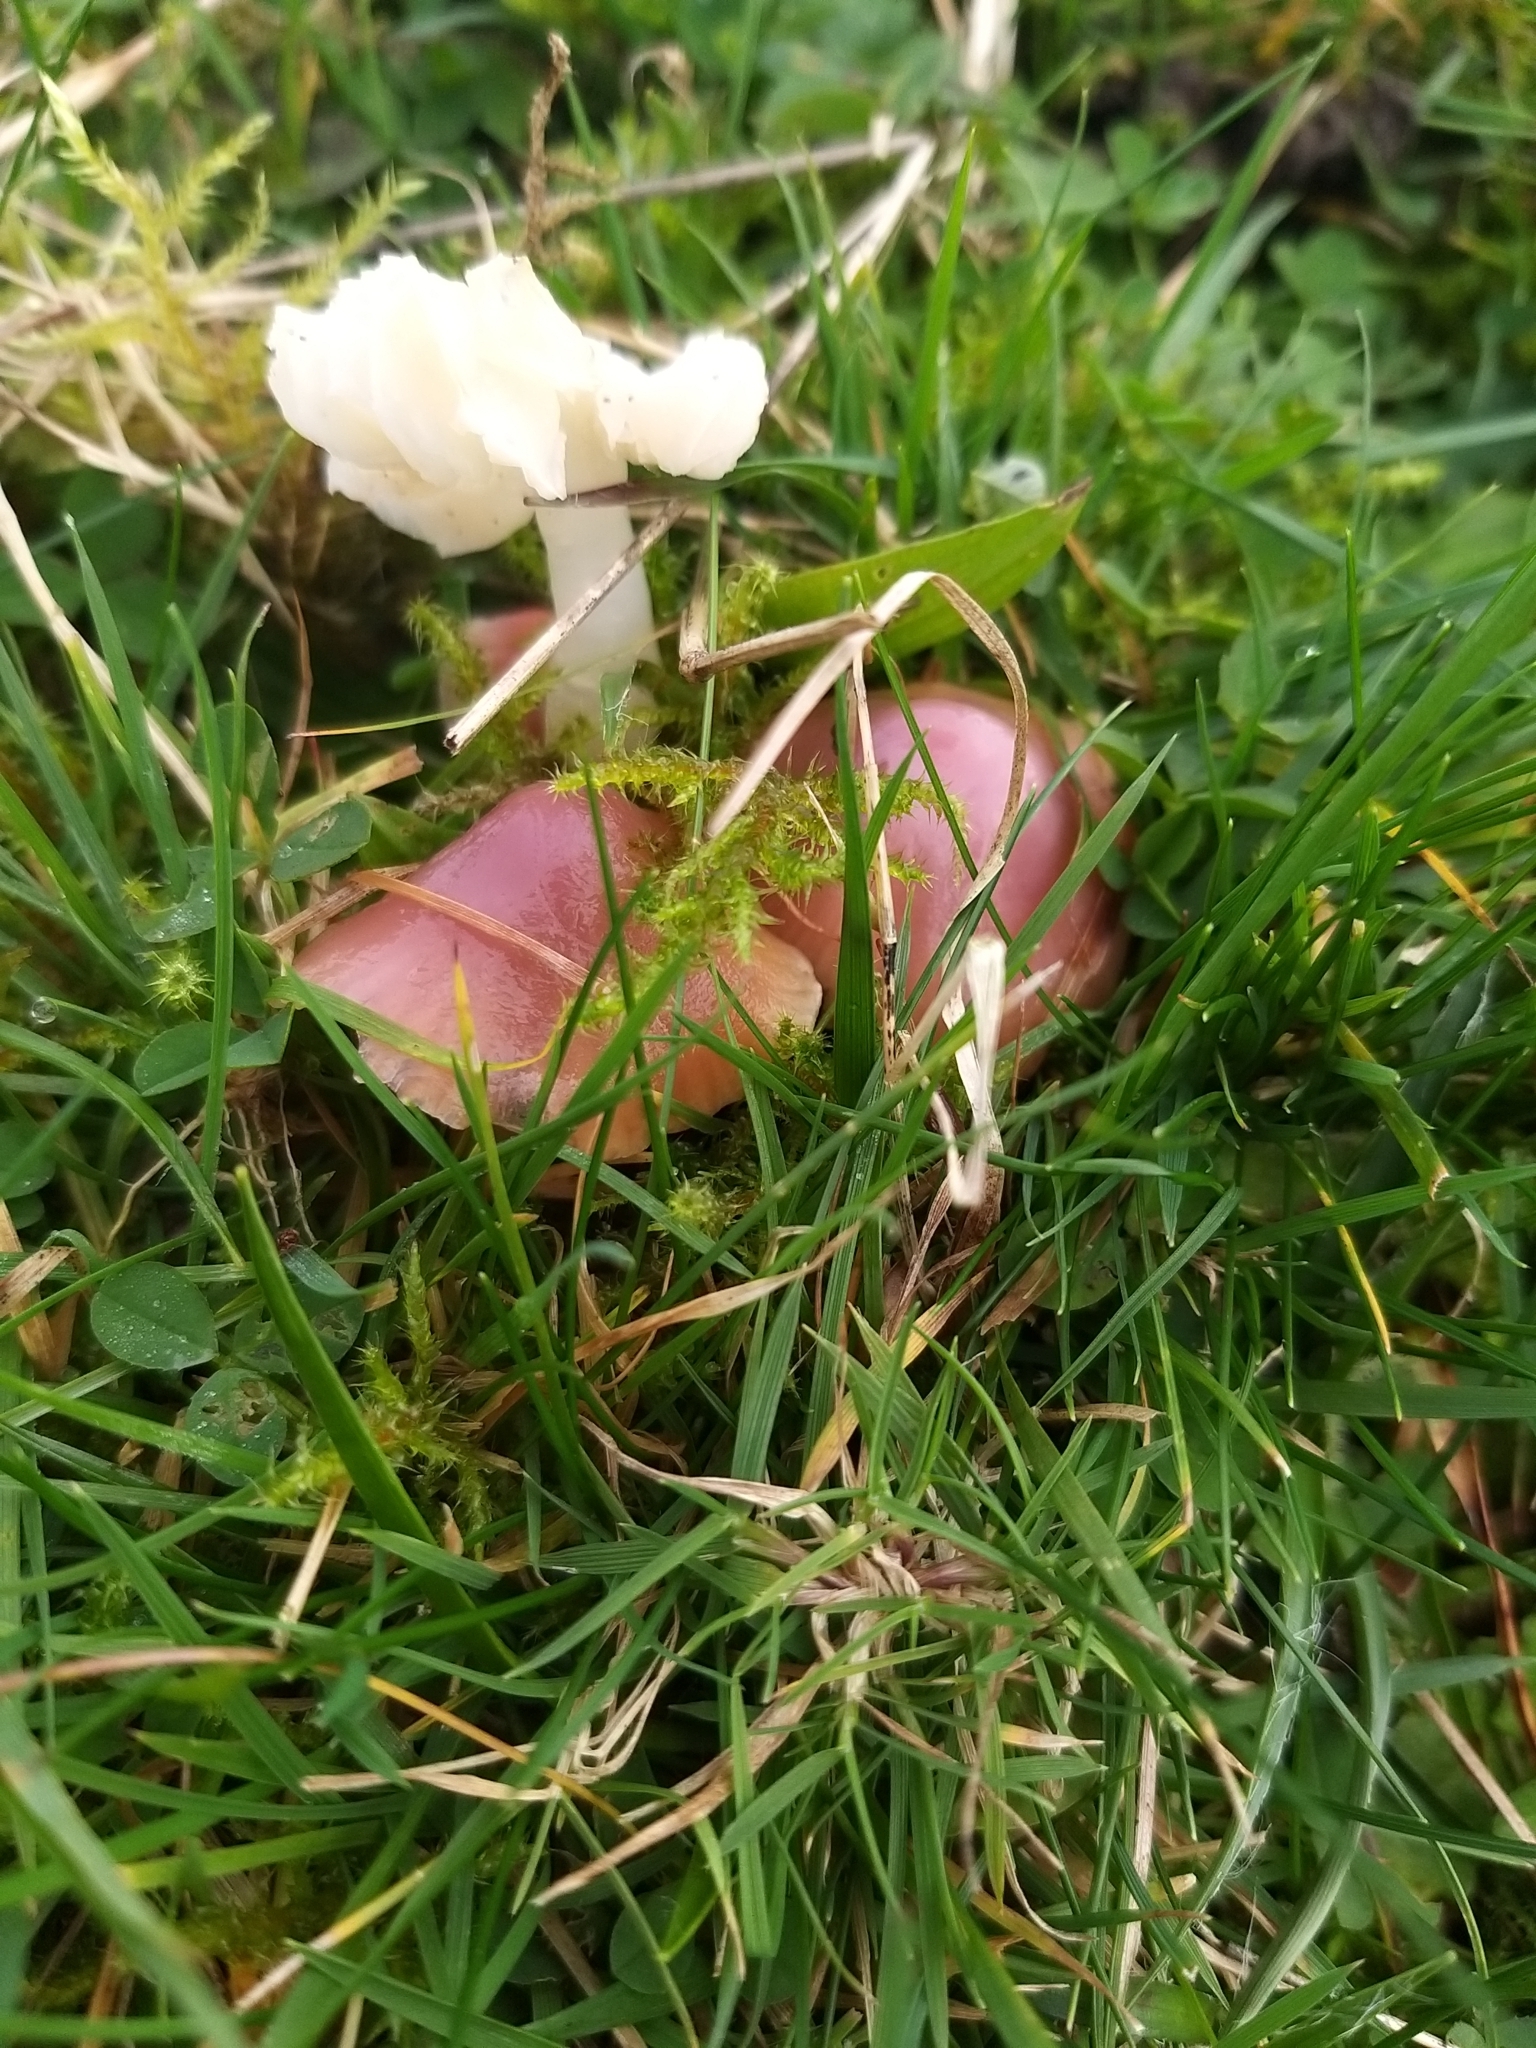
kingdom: Fungi
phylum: Basidiomycota
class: Agaricomycetes
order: Agaricales
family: Hygrophoraceae
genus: Gliophorus
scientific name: Gliophorus reginae
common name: Jubilee waxcap
